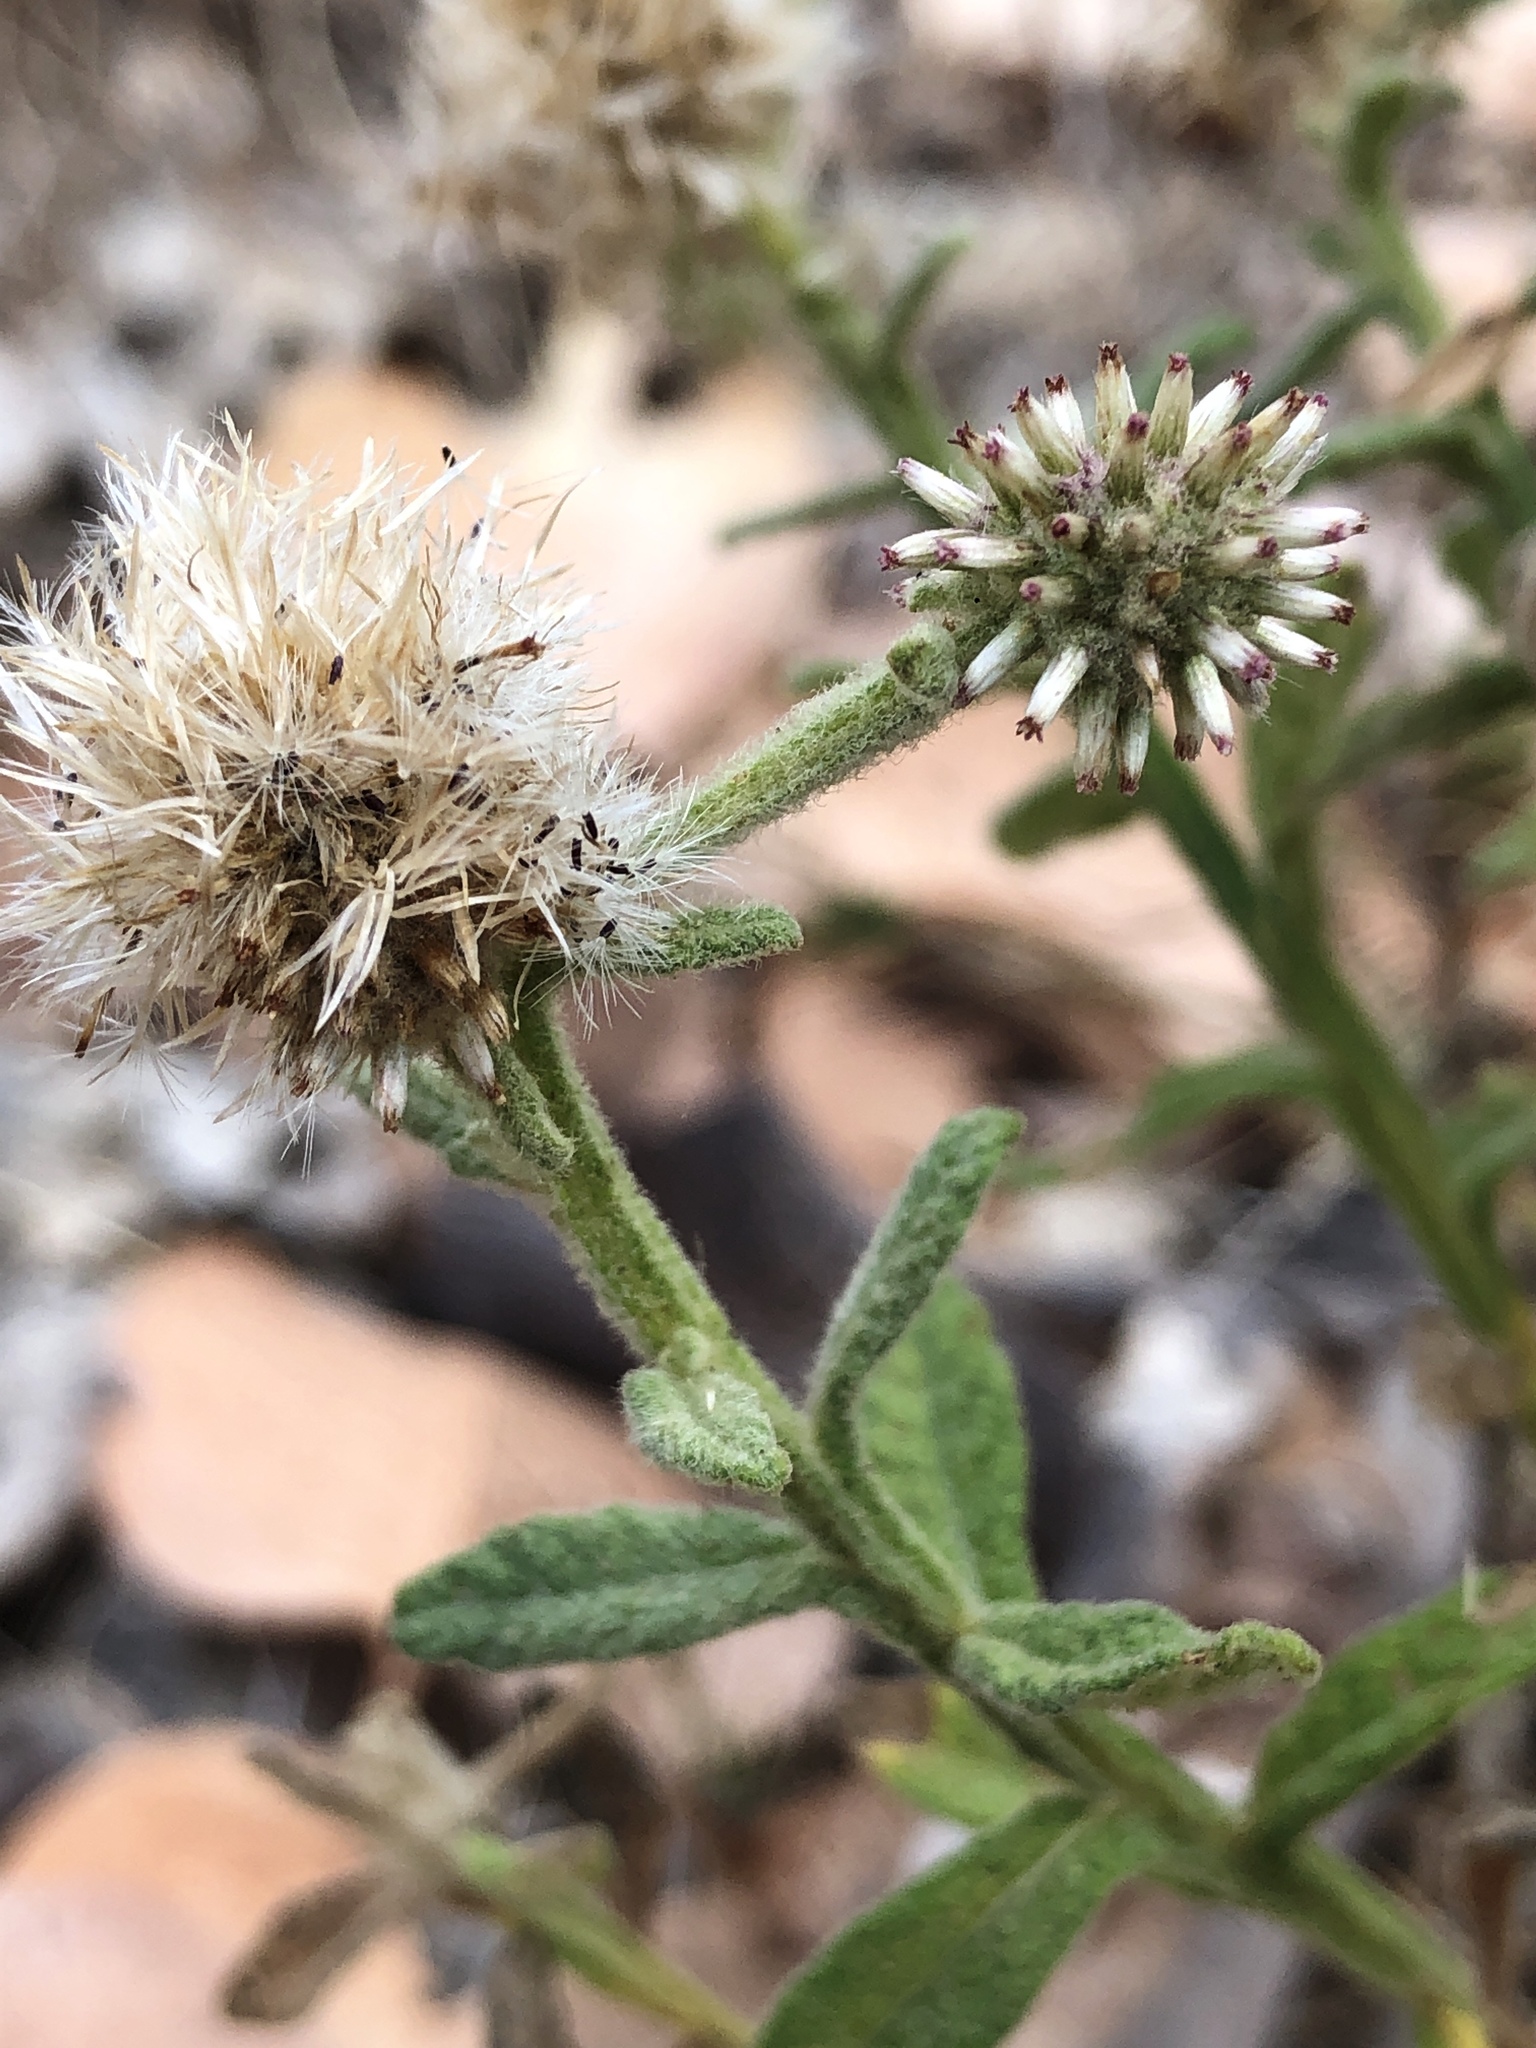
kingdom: Plantae
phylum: Tracheophyta
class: Magnoliopsida
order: Asterales
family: Asteraceae
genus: Pterocaulon
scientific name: Pterocaulon sphacelatum
